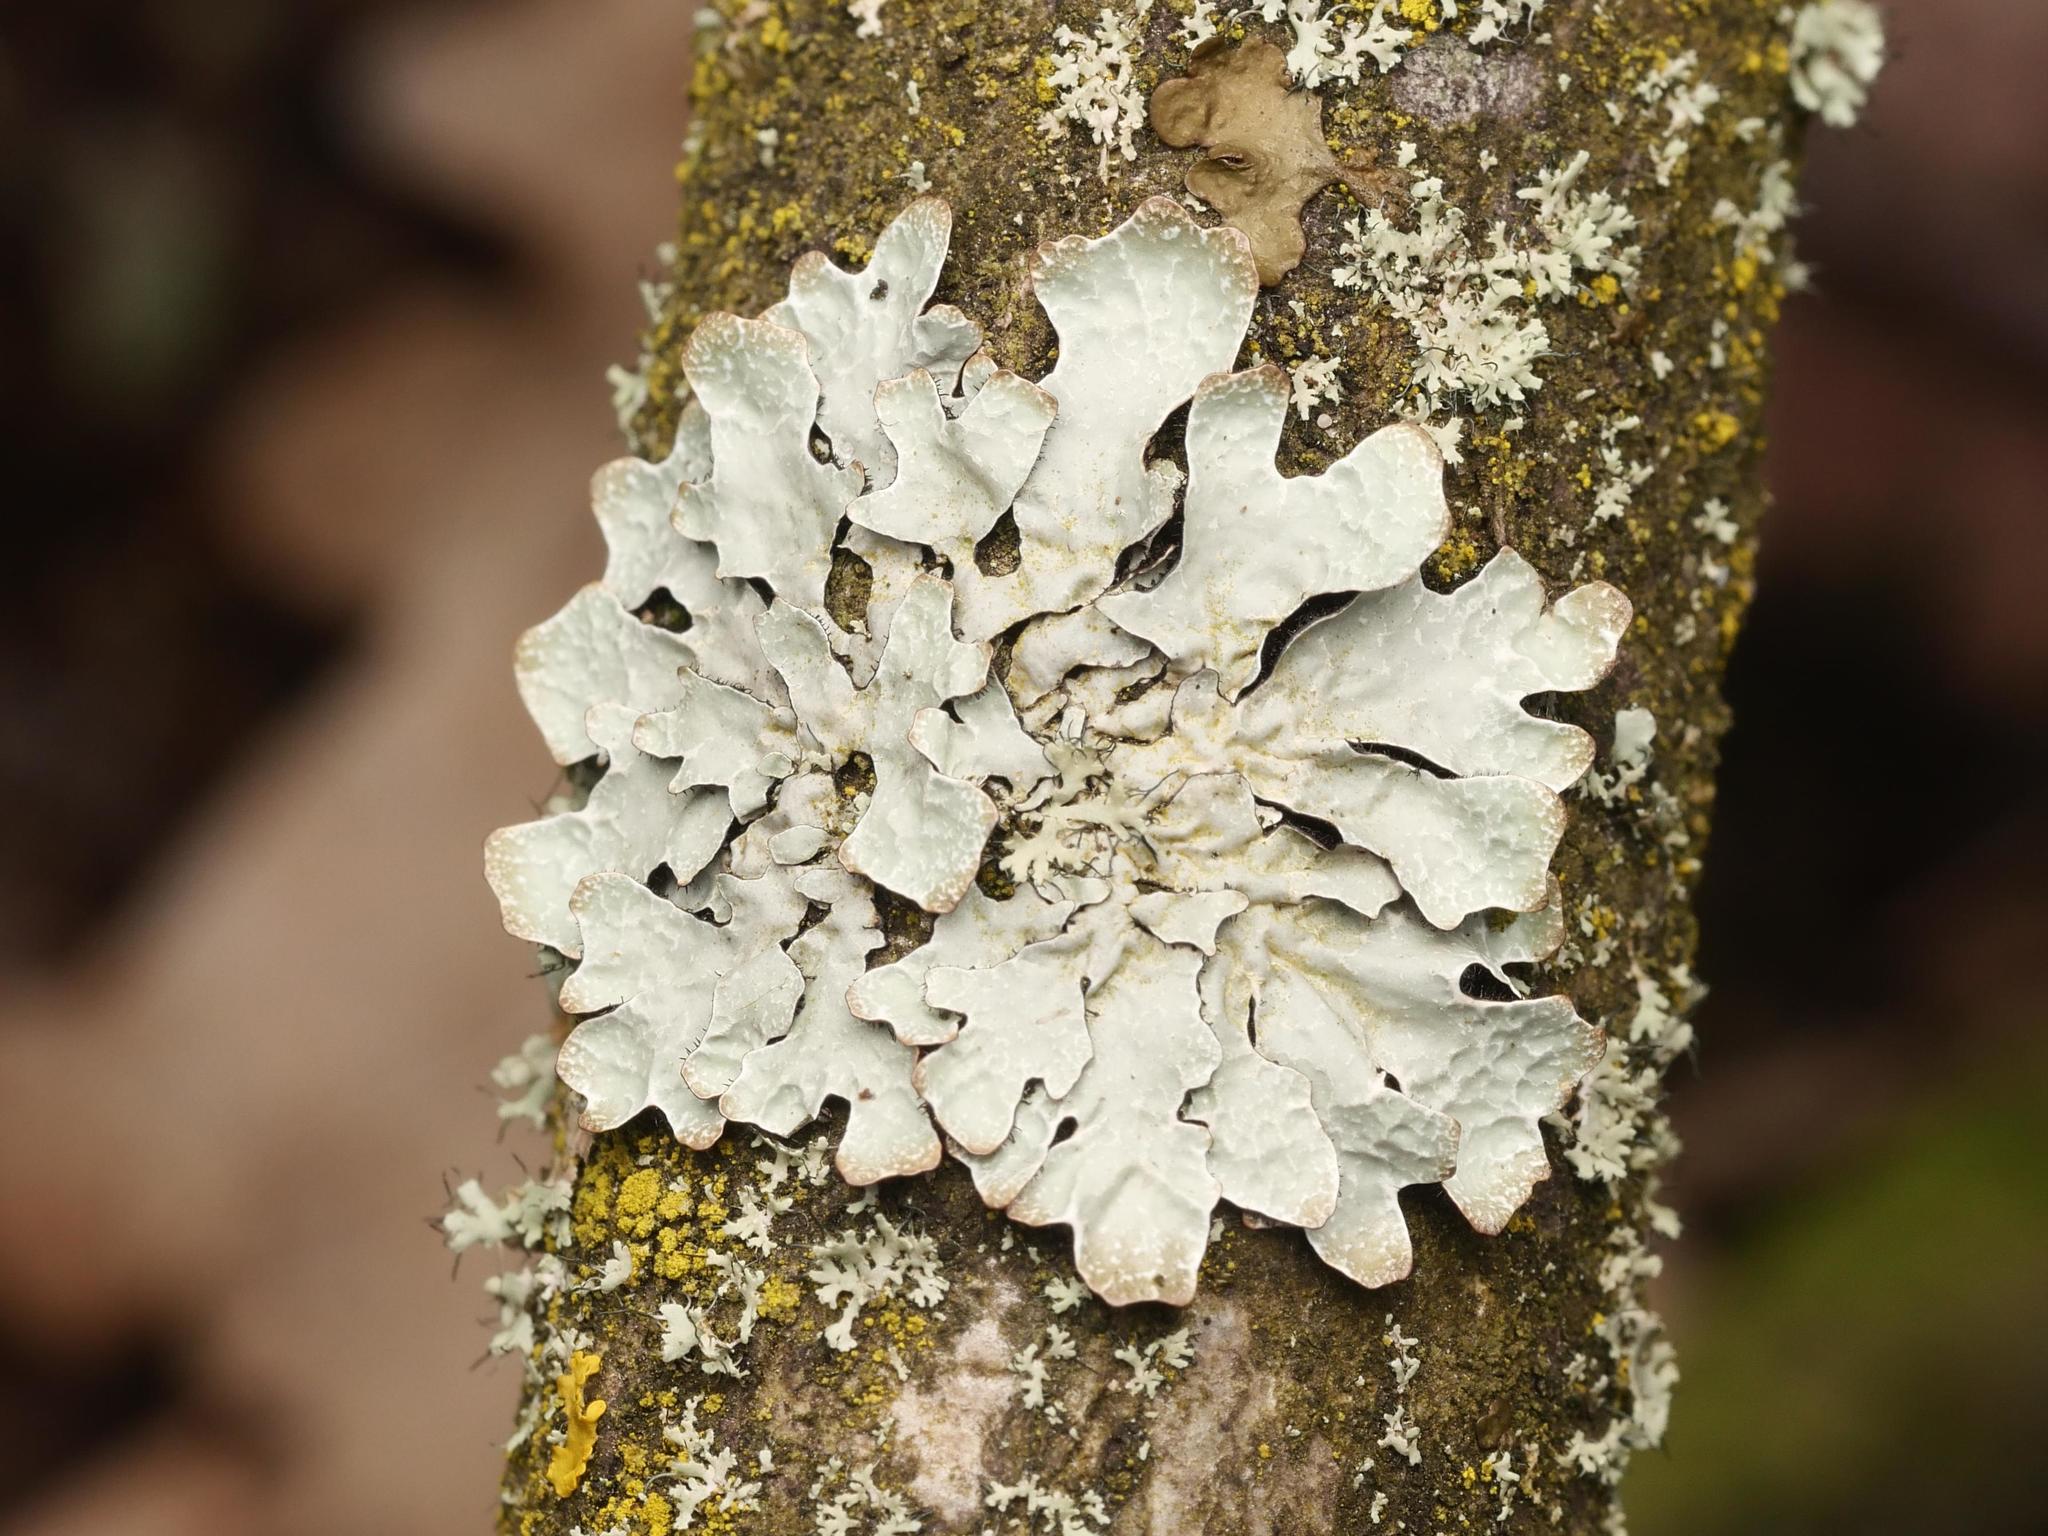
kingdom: Fungi
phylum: Ascomycota
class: Lecanoromycetes
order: Lecanorales
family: Parmeliaceae
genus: Parmelia
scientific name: Parmelia sulcata
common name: Netted shield lichen
